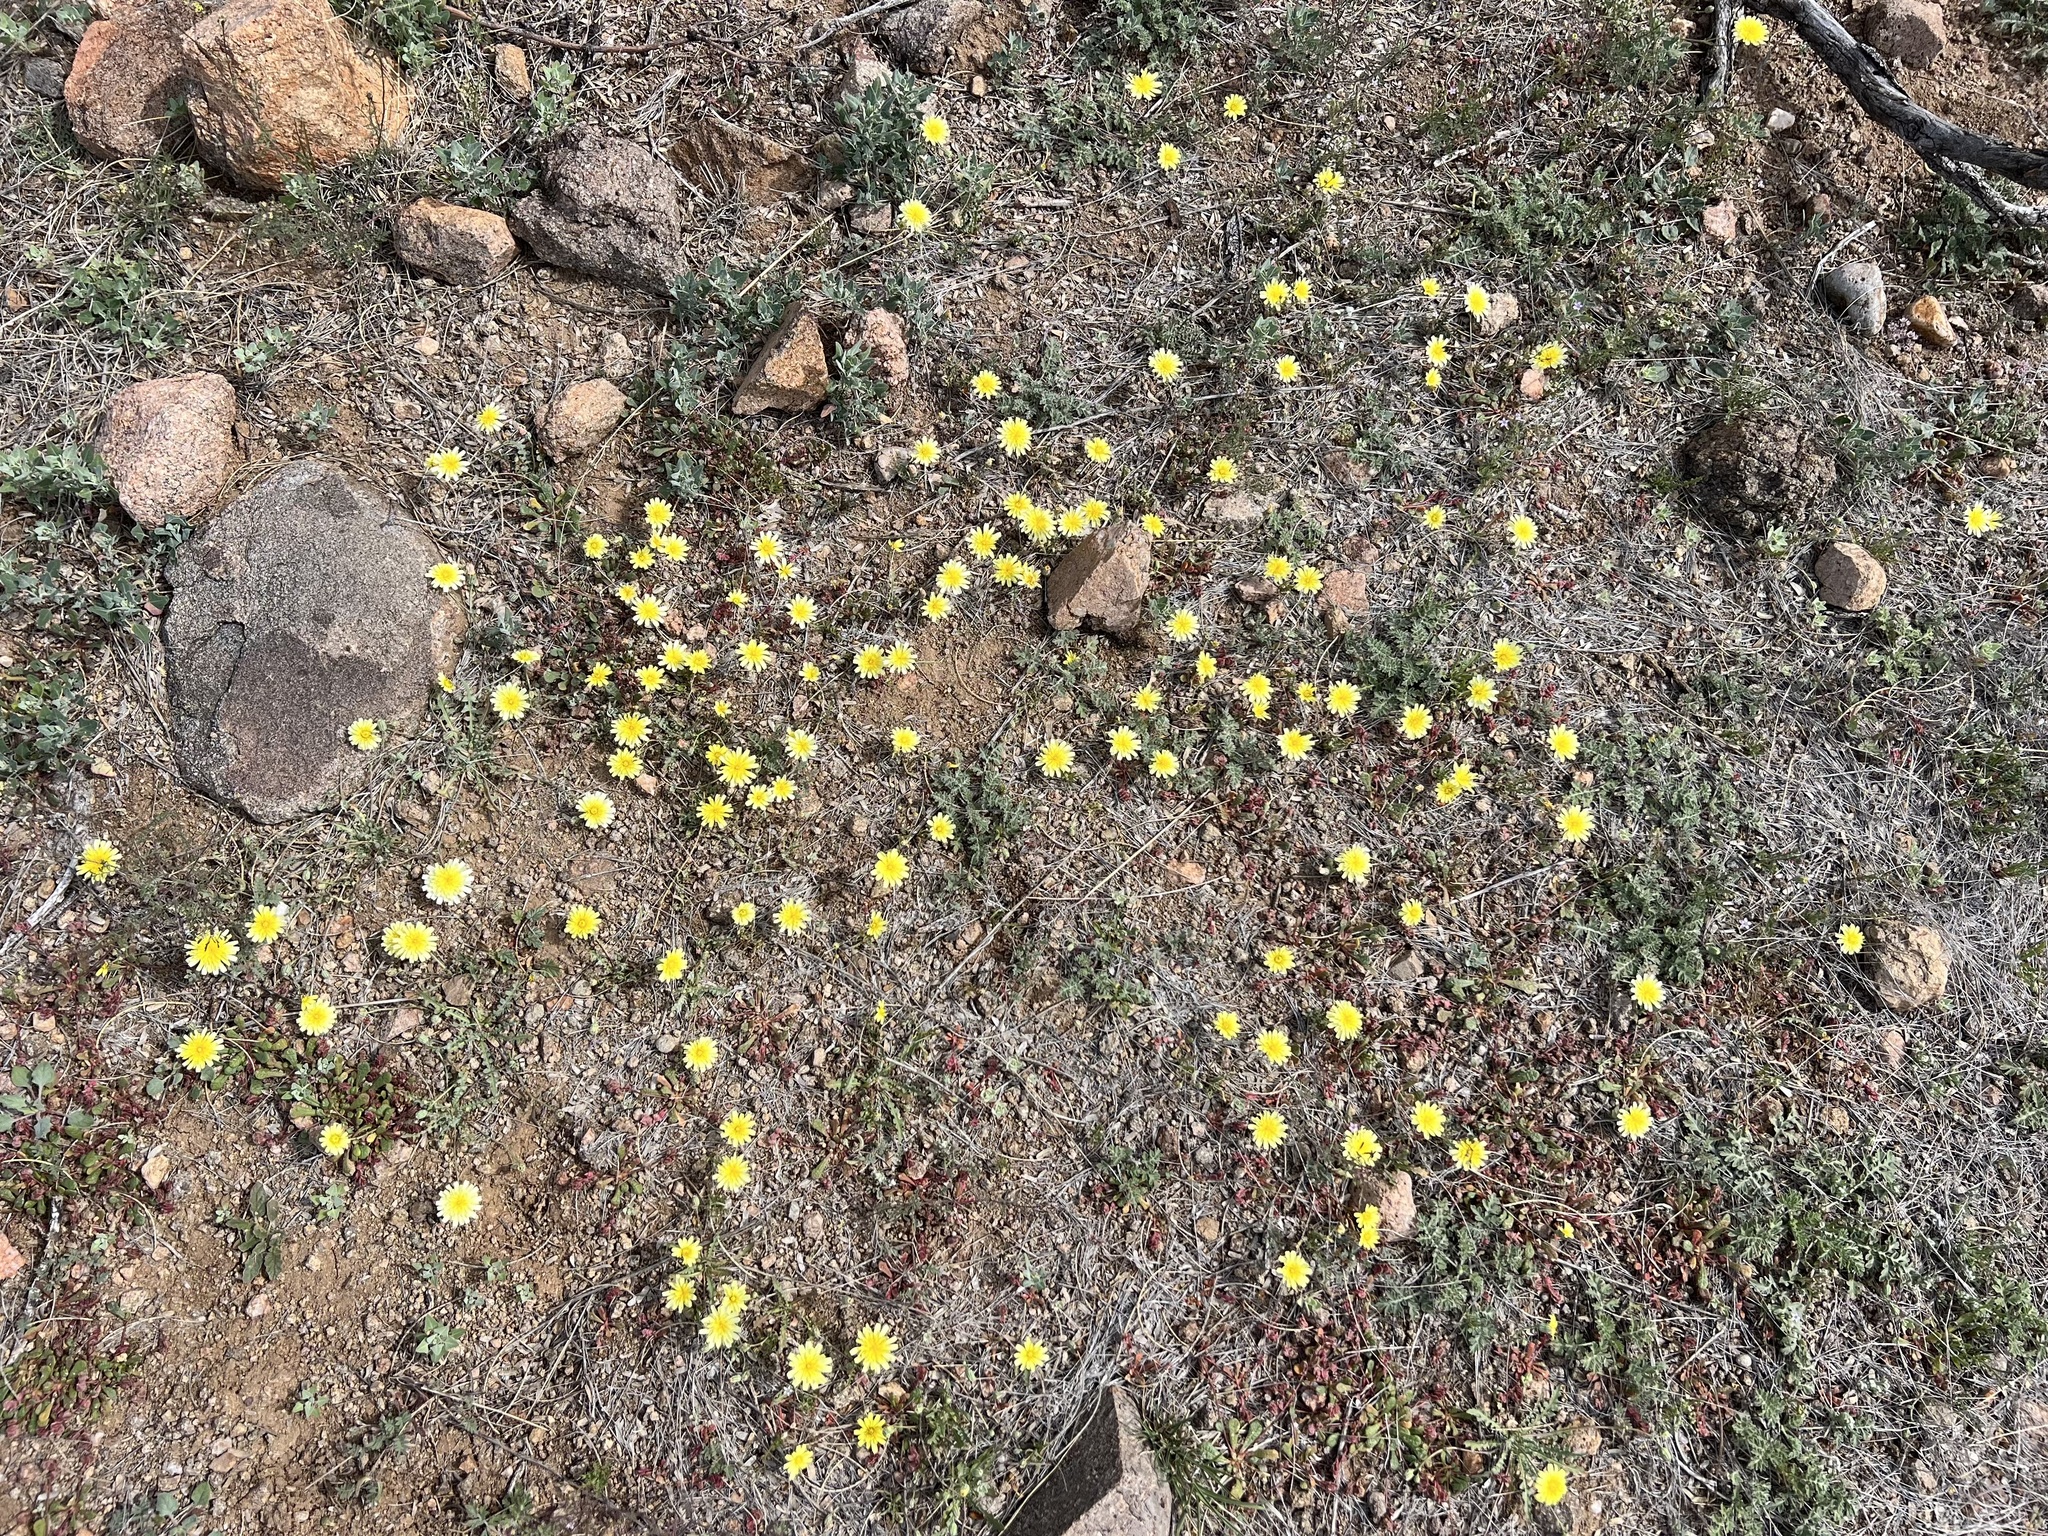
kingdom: Plantae
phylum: Tracheophyta
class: Magnoliopsida
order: Asterales
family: Asteraceae
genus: Malacothrix
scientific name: Malacothrix fendleri
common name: Fendler's desert-dandelion
